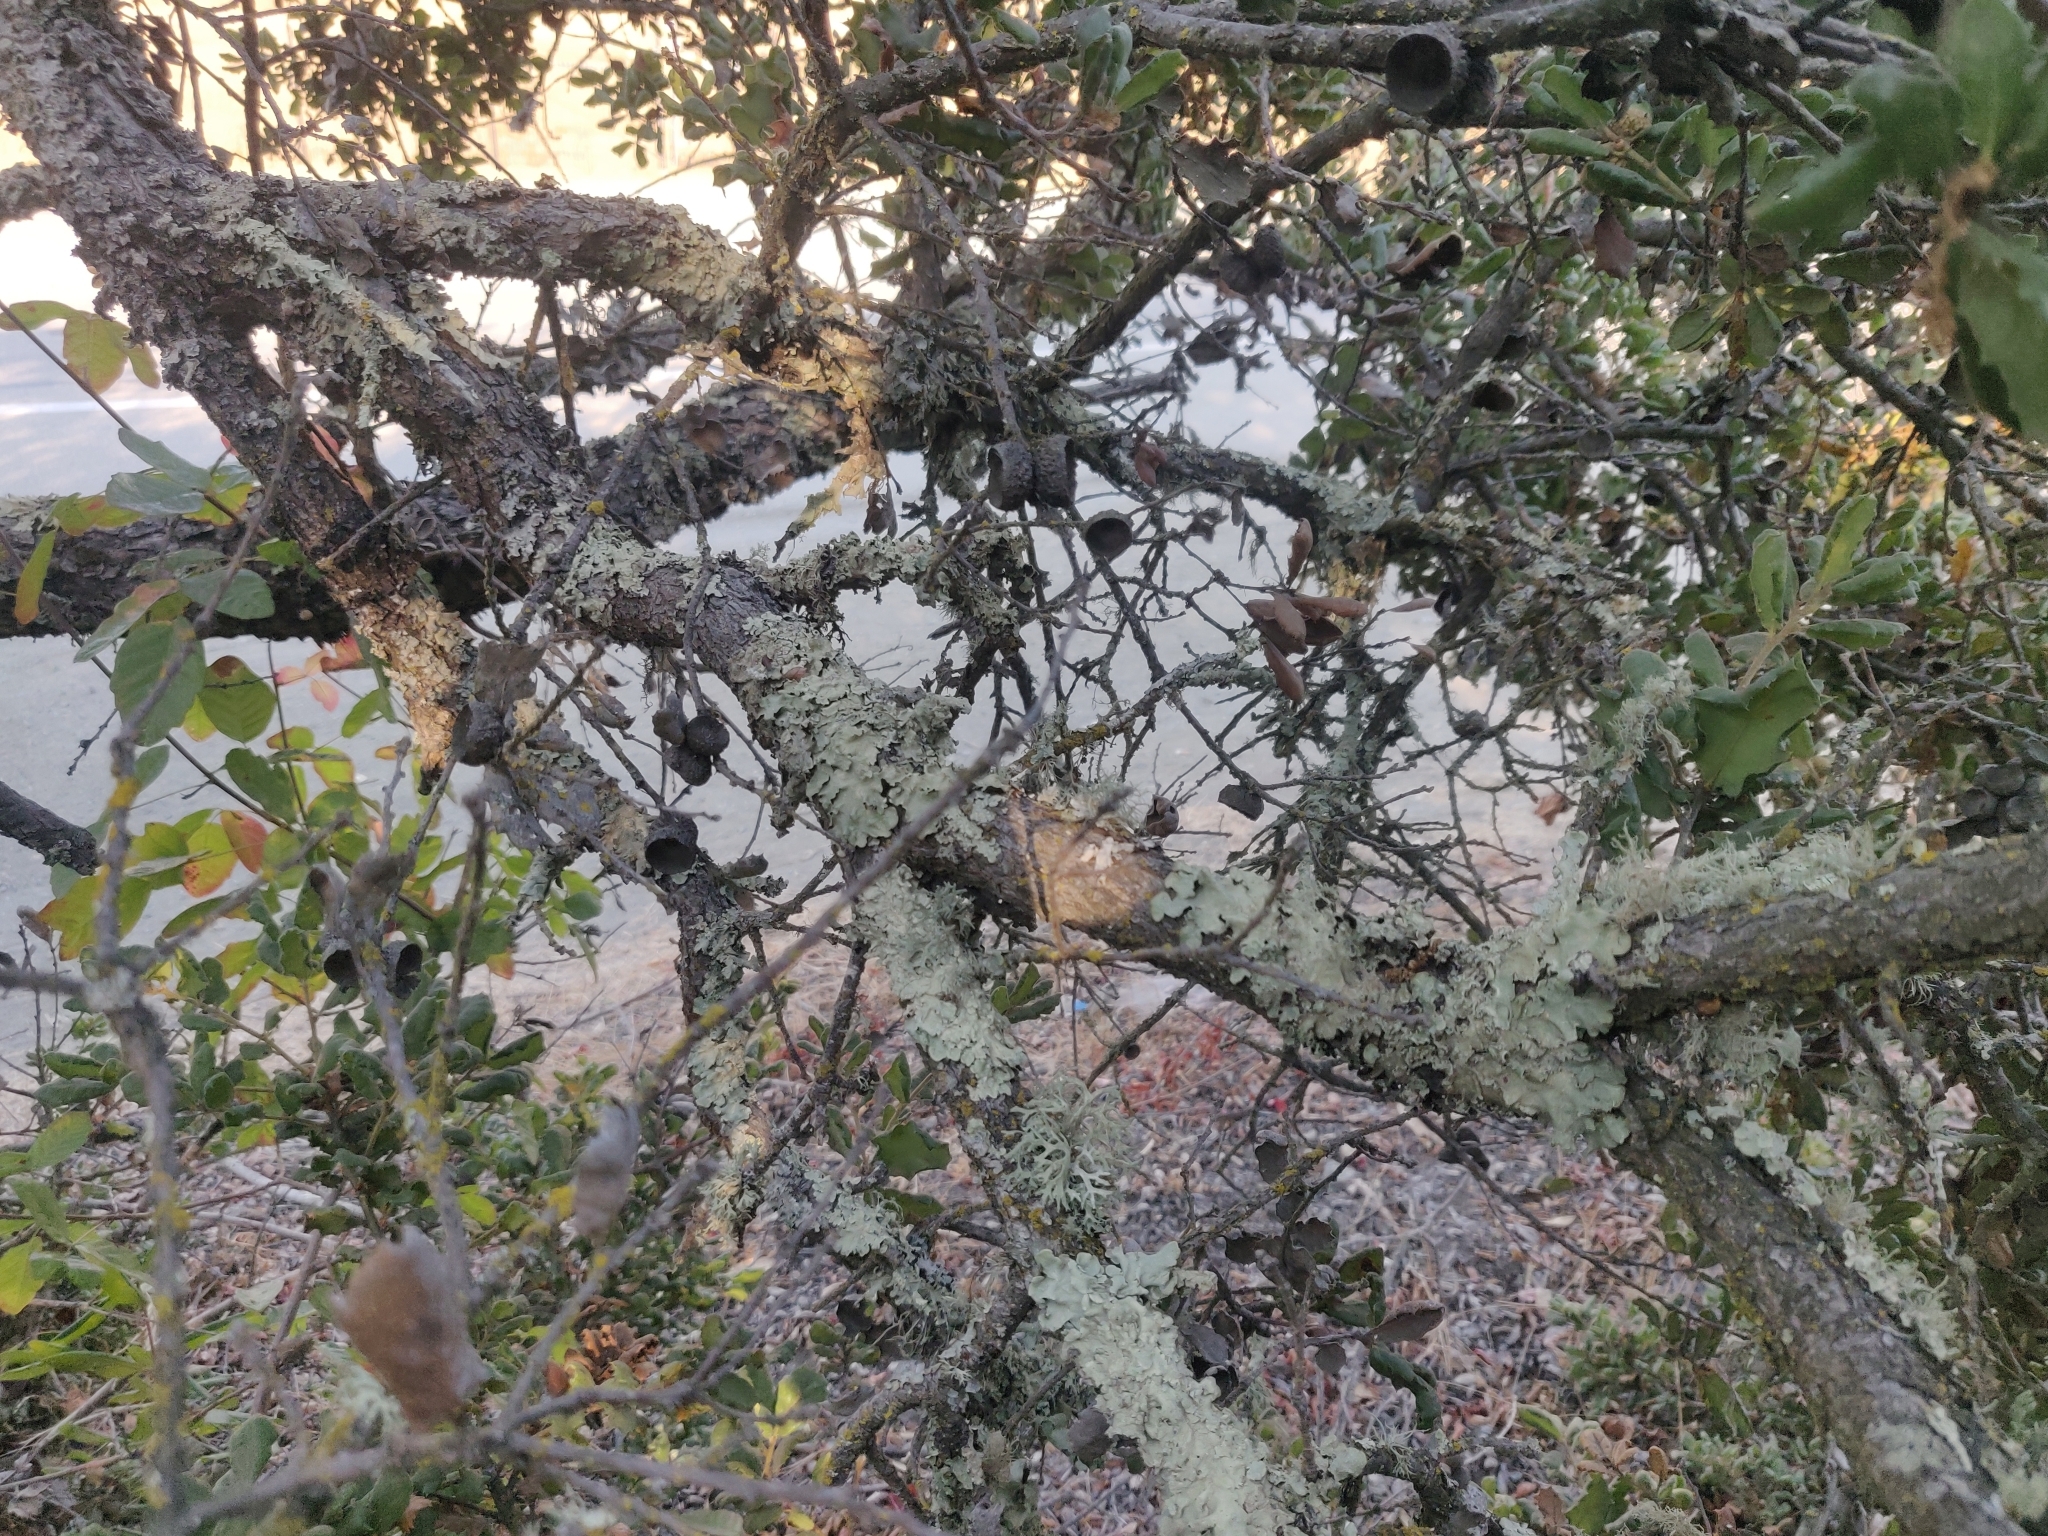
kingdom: Plantae
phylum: Tracheophyta
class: Magnoliopsida
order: Fagales
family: Fagaceae
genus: Quercus
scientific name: Quercus durata
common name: Leather oak
